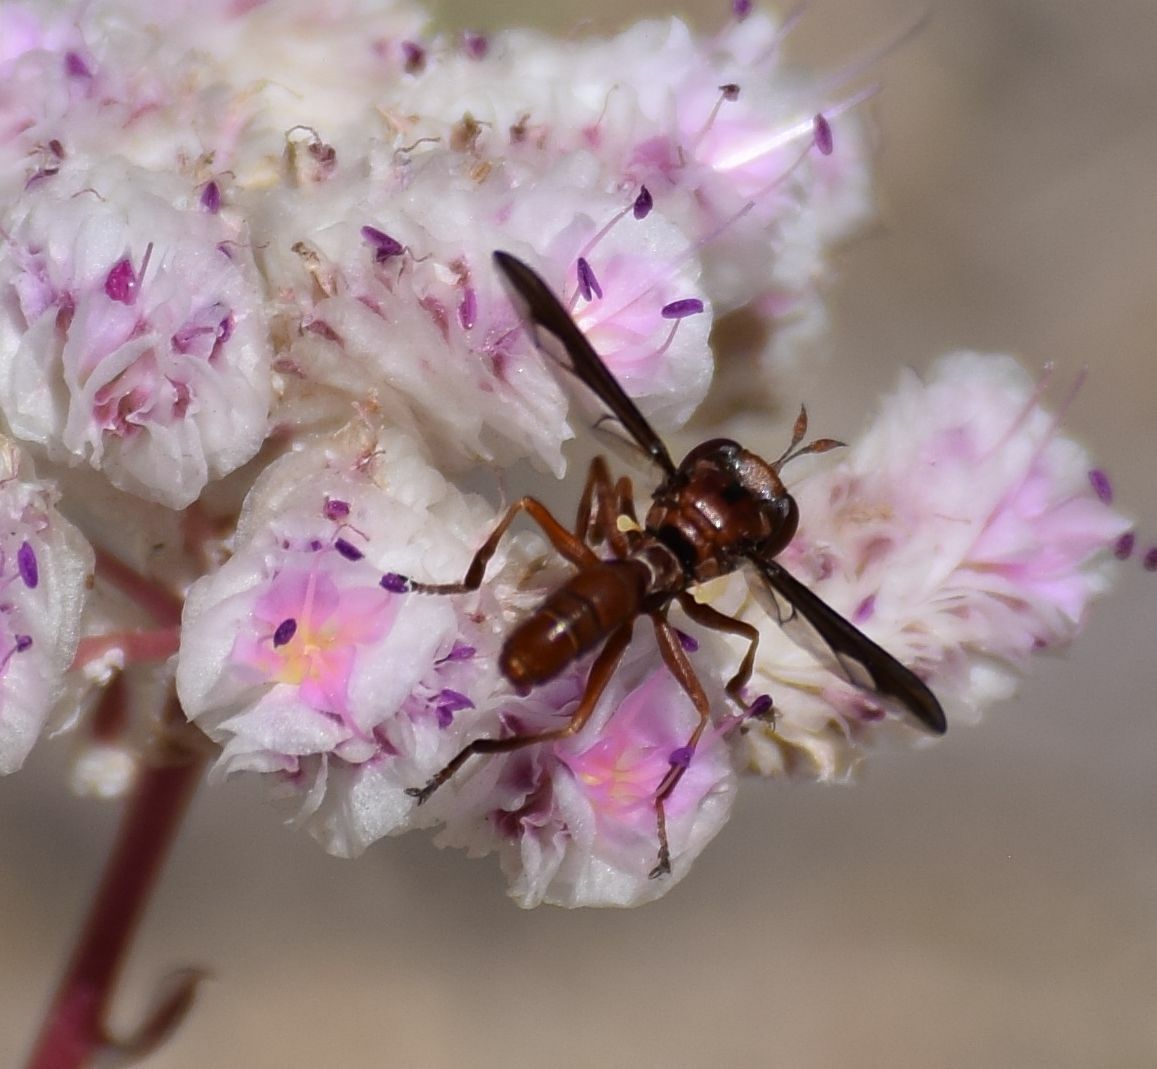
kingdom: Animalia
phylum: Arthropoda
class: Insecta
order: Diptera
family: Conopidae
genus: Physocephala
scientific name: Physocephala burgessi
